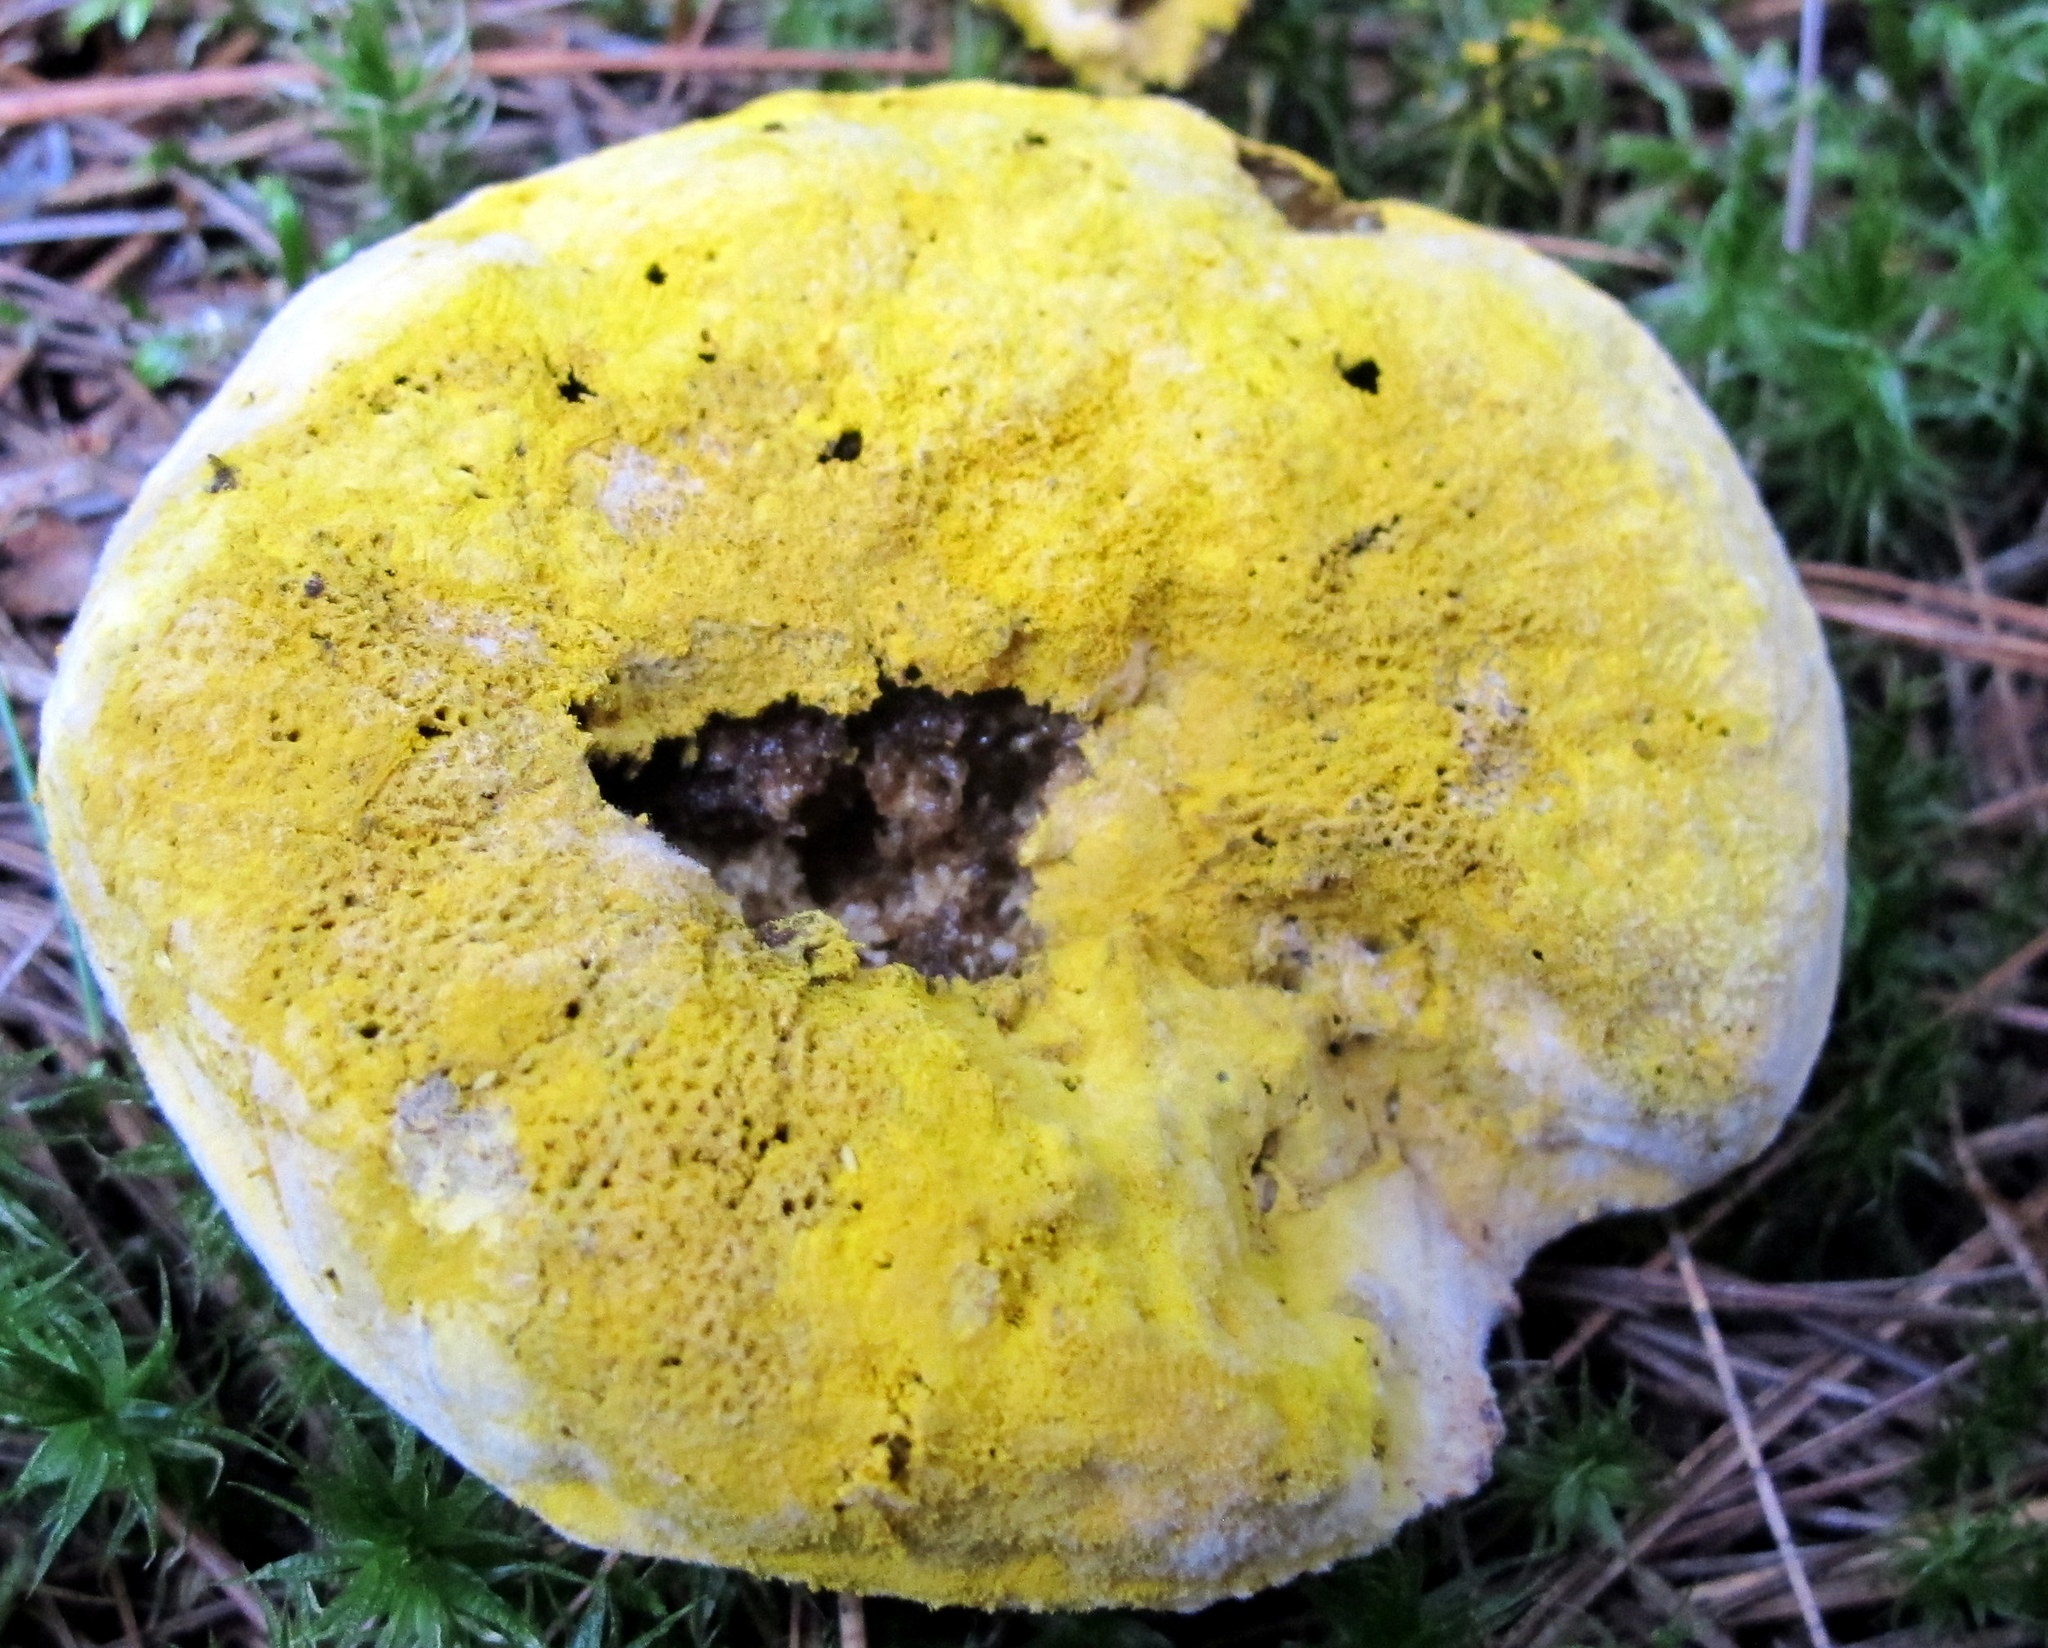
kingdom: Fungi
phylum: Ascomycota
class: Sordariomycetes
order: Hypocreales
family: Hypocreaceae
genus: Hypomyces
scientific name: Hypomyces chrysospermus
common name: Bolete mould
